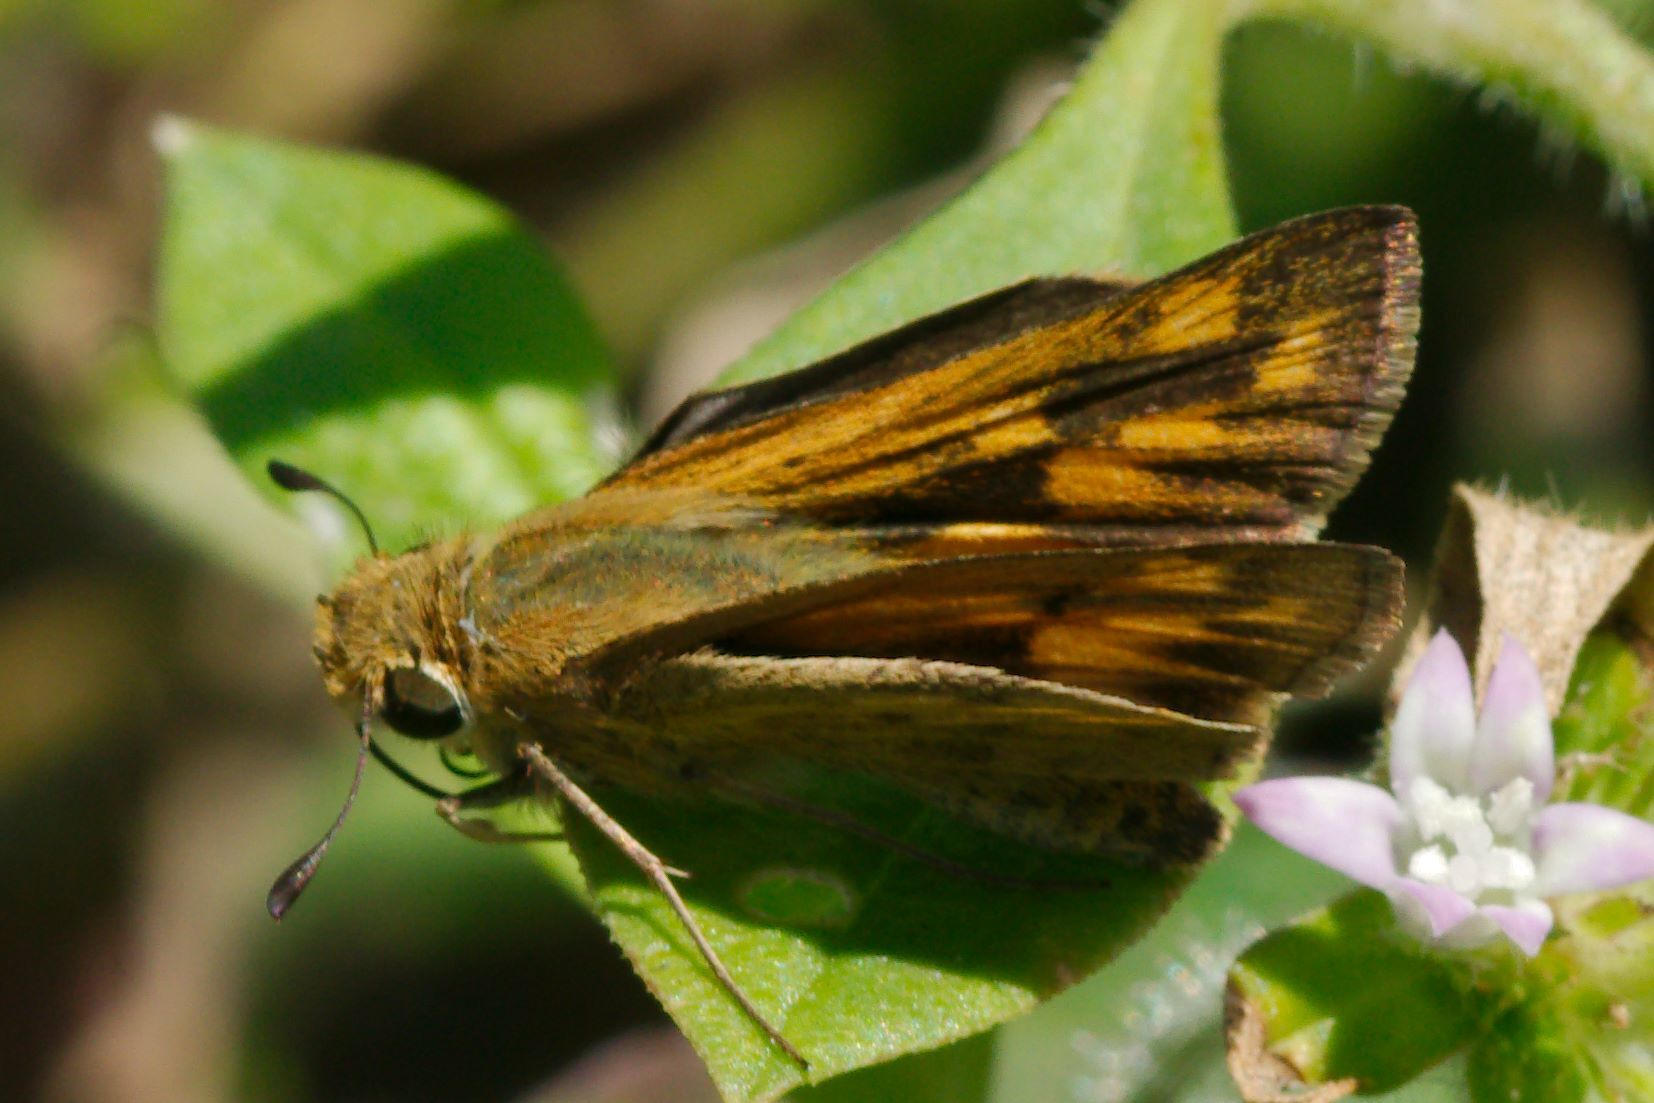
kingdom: Animalia
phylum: Arthropoda
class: Insecta
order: Lepidoptera
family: Hesperiidae
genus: Hylephila
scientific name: Hylephila phyleus
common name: Fiery skipper
